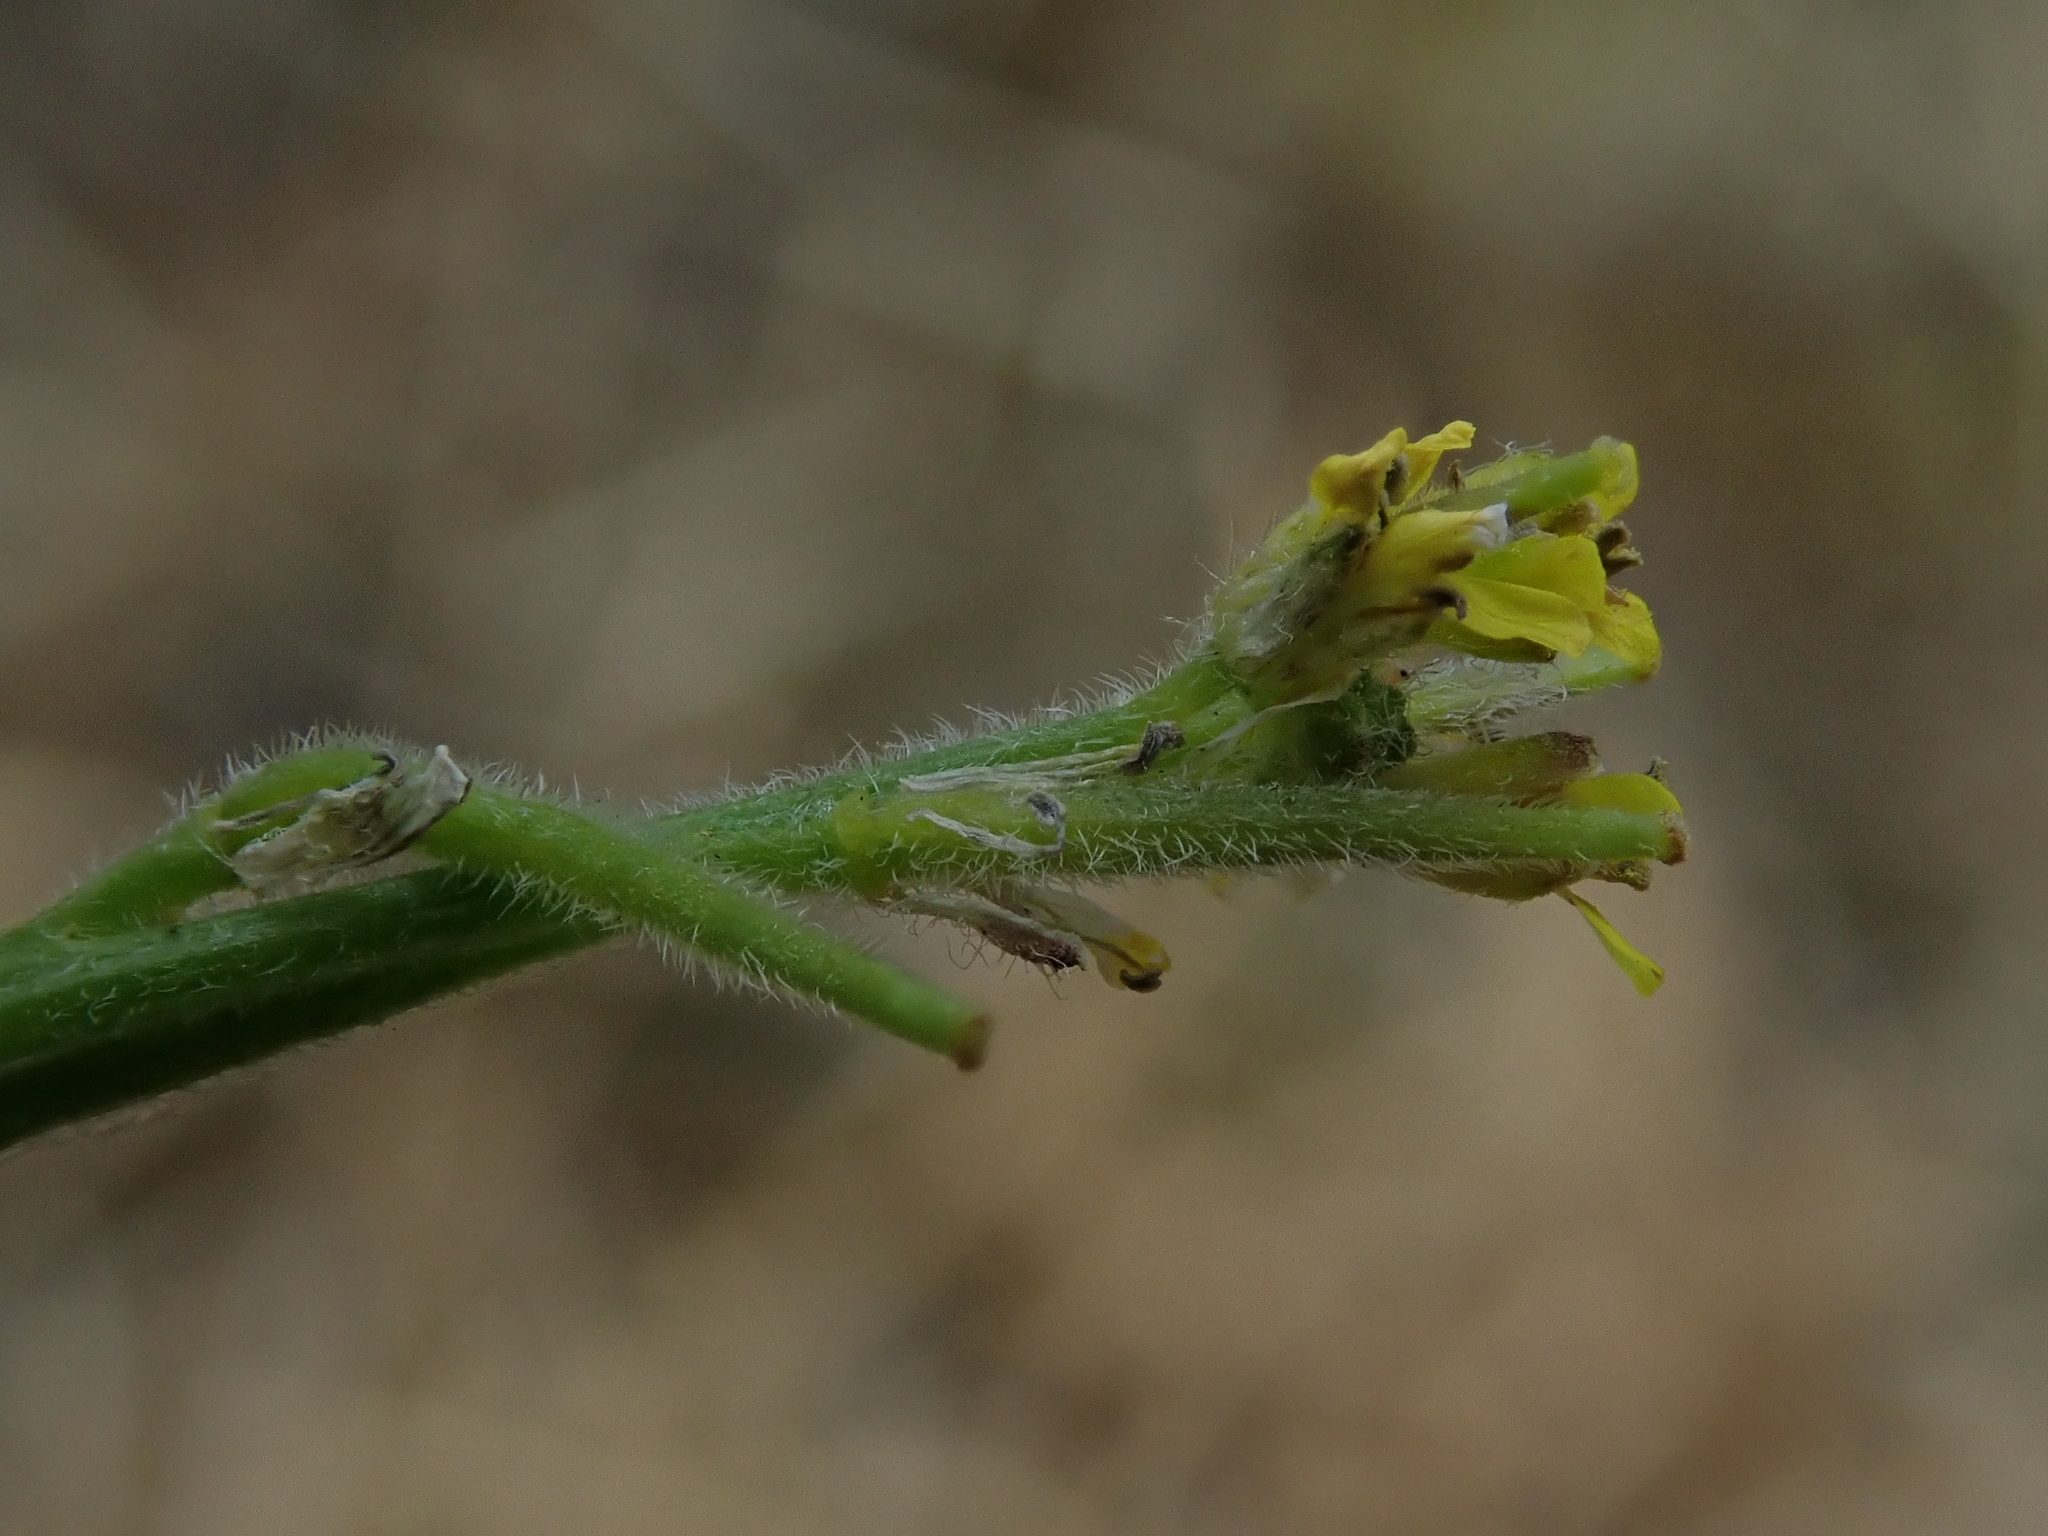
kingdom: Plantae
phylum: Tracheophyta
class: Magnoliopsida
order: Brassicales
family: Brassicaceae
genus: Sisymbrium
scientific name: Sisymbrium officinale
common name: Hedge mustard
